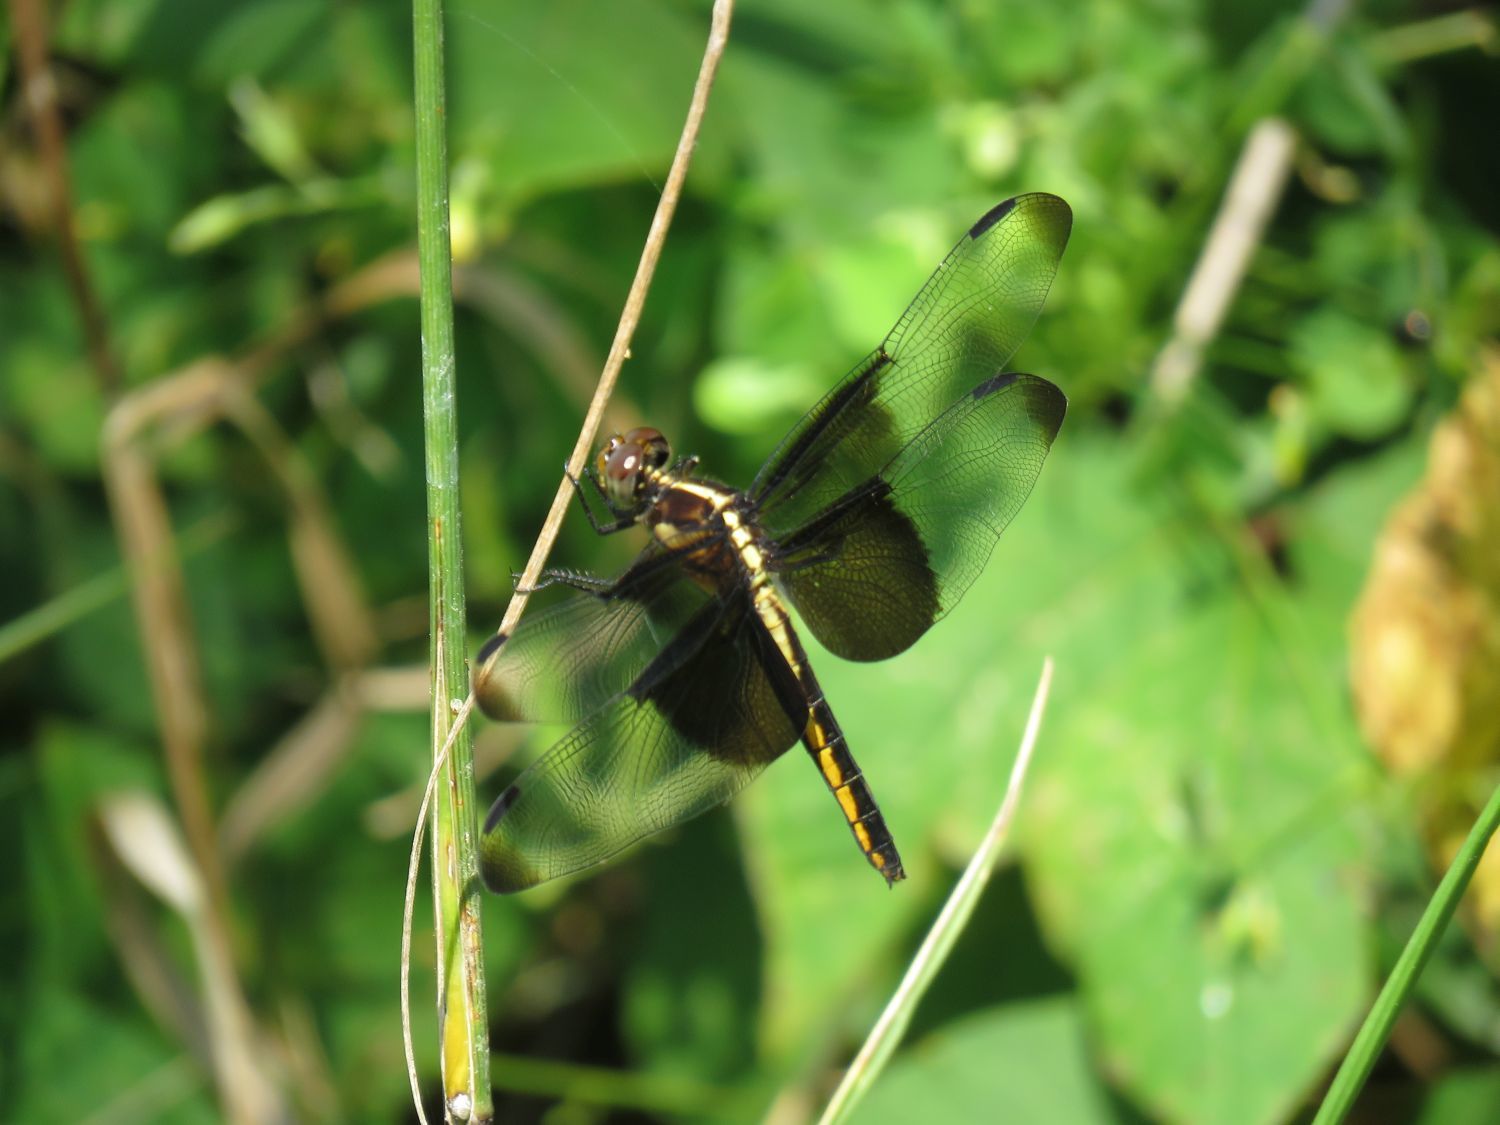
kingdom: Animalia
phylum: Arthropoda
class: Insecta
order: Odonata
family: Libellulidae
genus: Libellula
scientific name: Libellula luctuosa
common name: Widow skimmer
